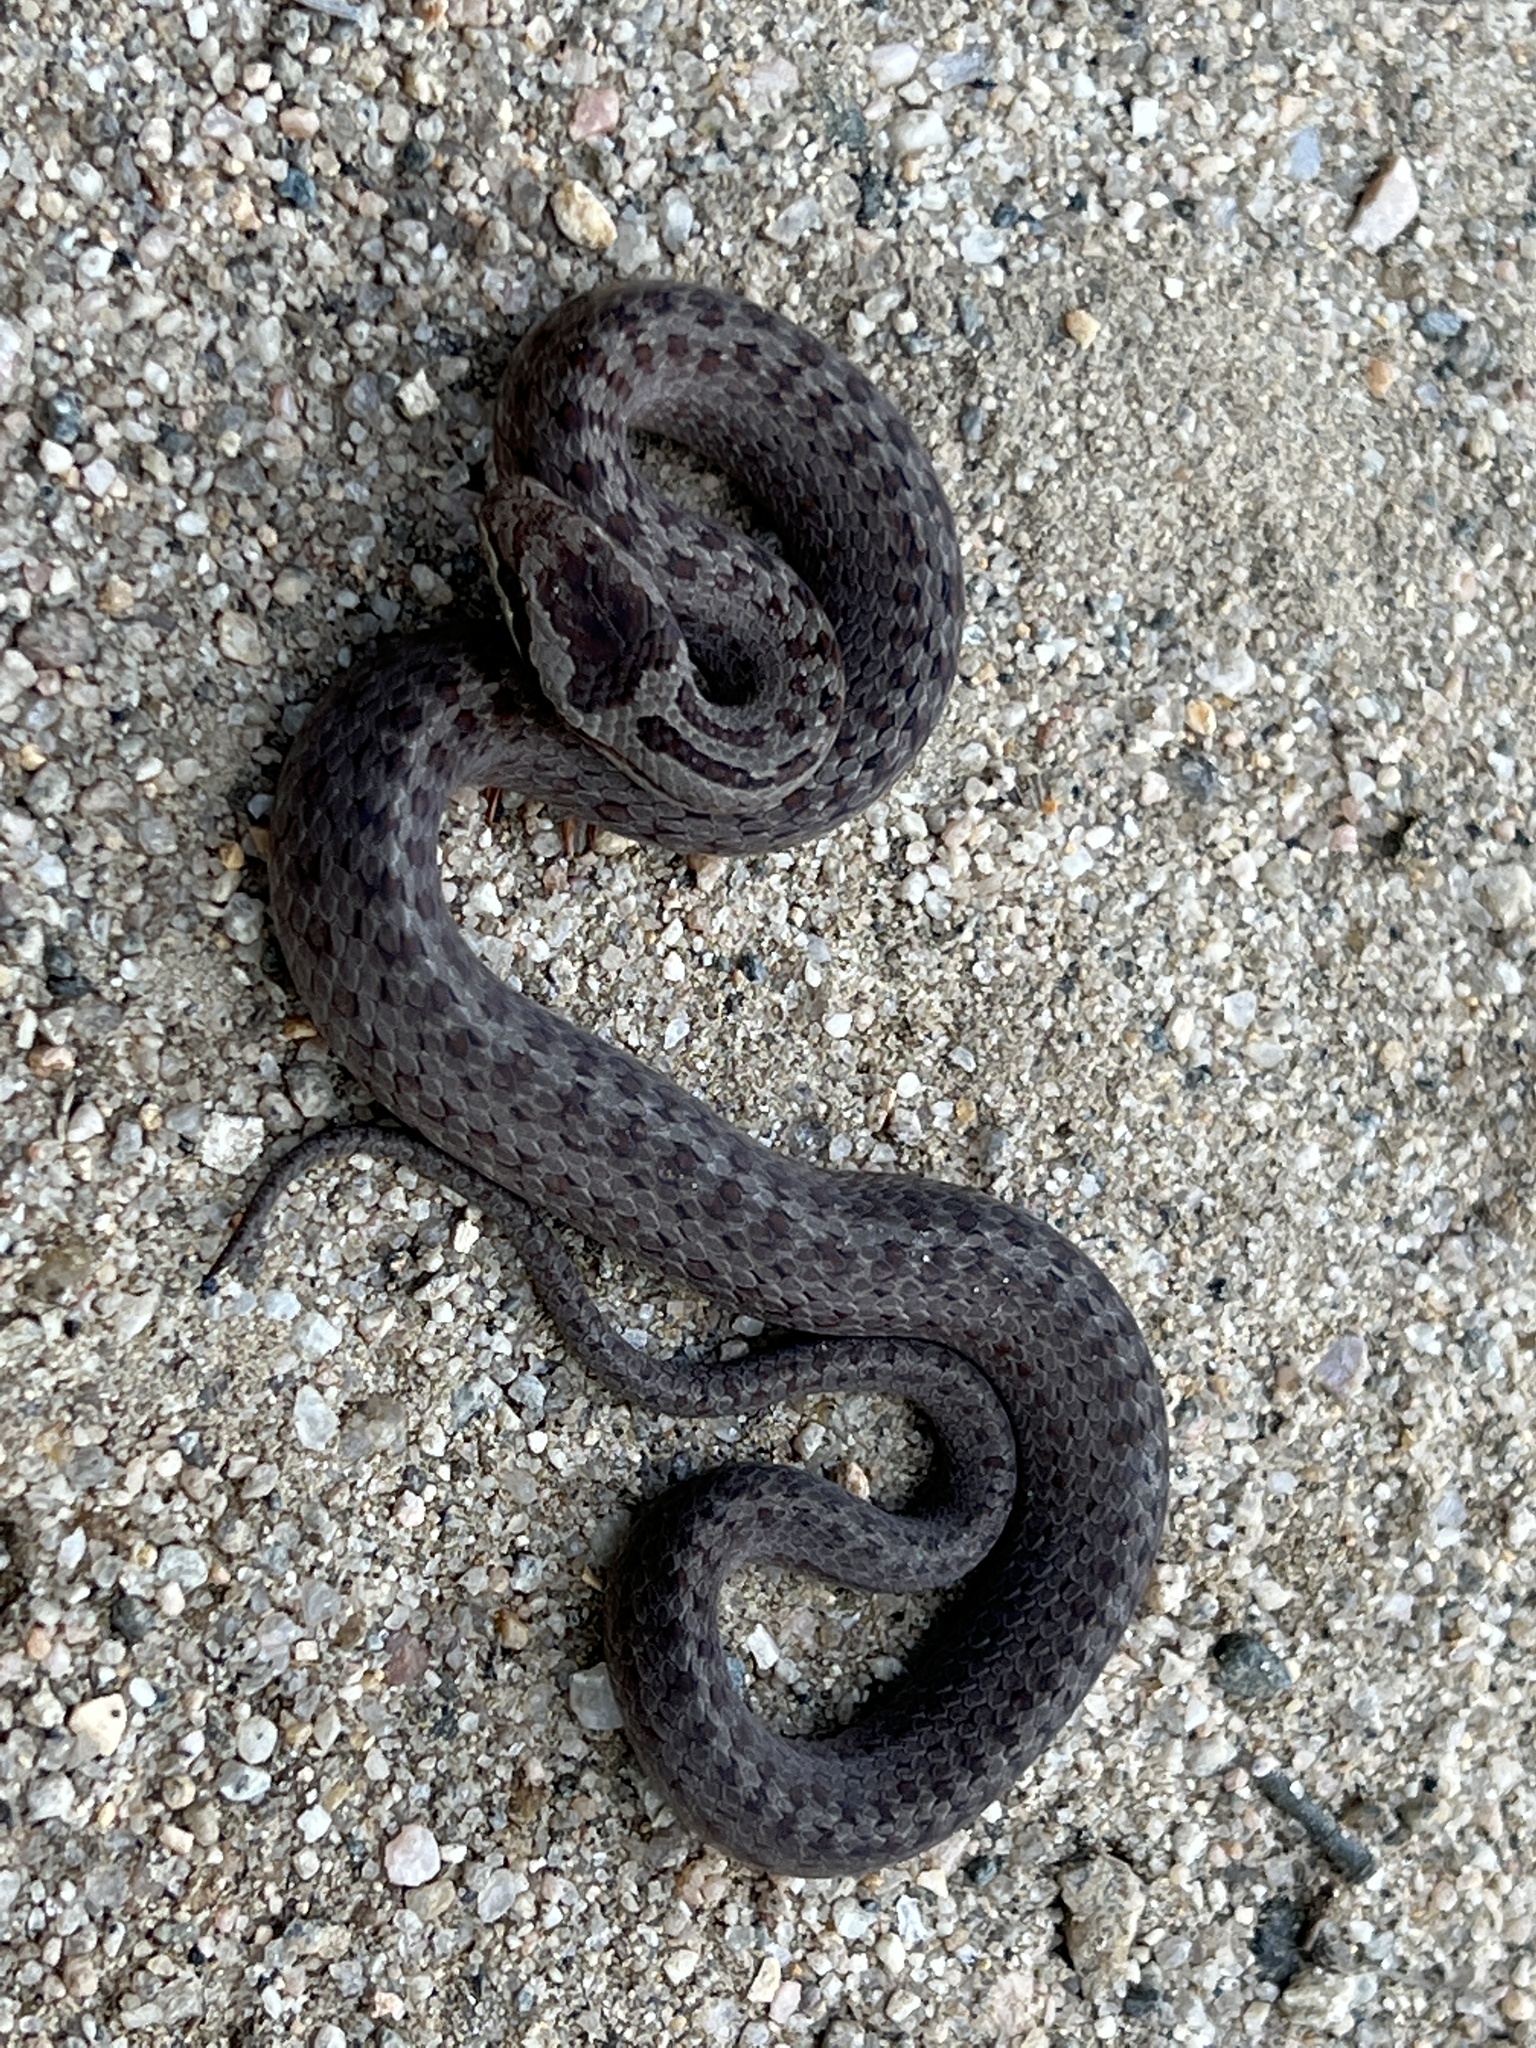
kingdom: Animalia
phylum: Chordata
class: Squamata
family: Colubridae
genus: Coronella
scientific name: Coronella austriaca
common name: Smooth snake
